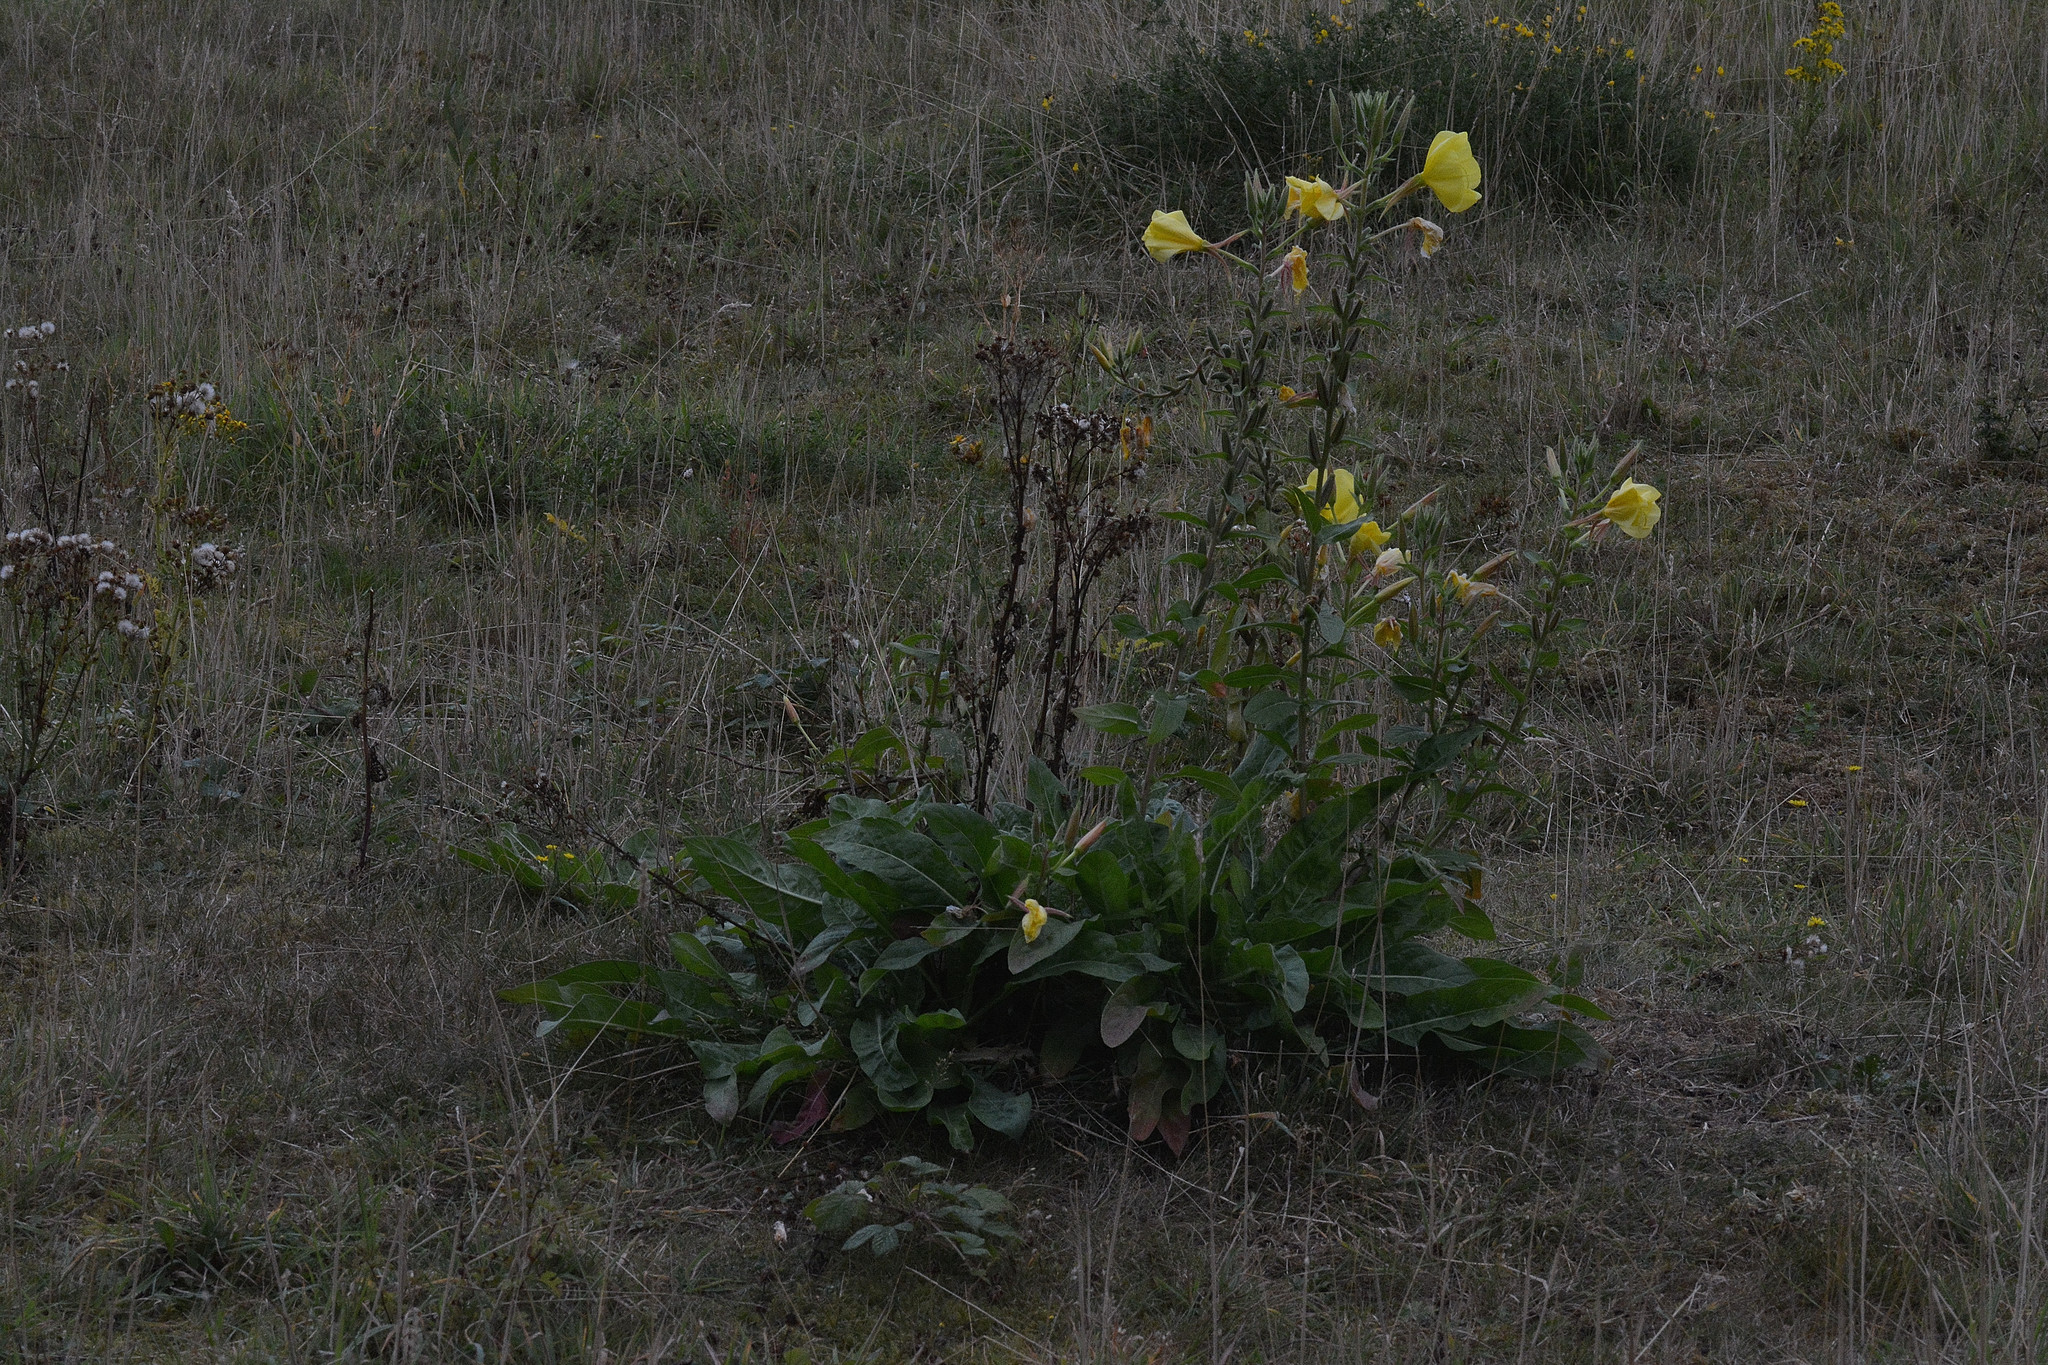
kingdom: Plantae
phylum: Tracheophyta
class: Magnoliopsida
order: Myrtales
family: Onagraceae
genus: Oenothera
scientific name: Oenothera glazioviana
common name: Large-flowered evening-primrose
